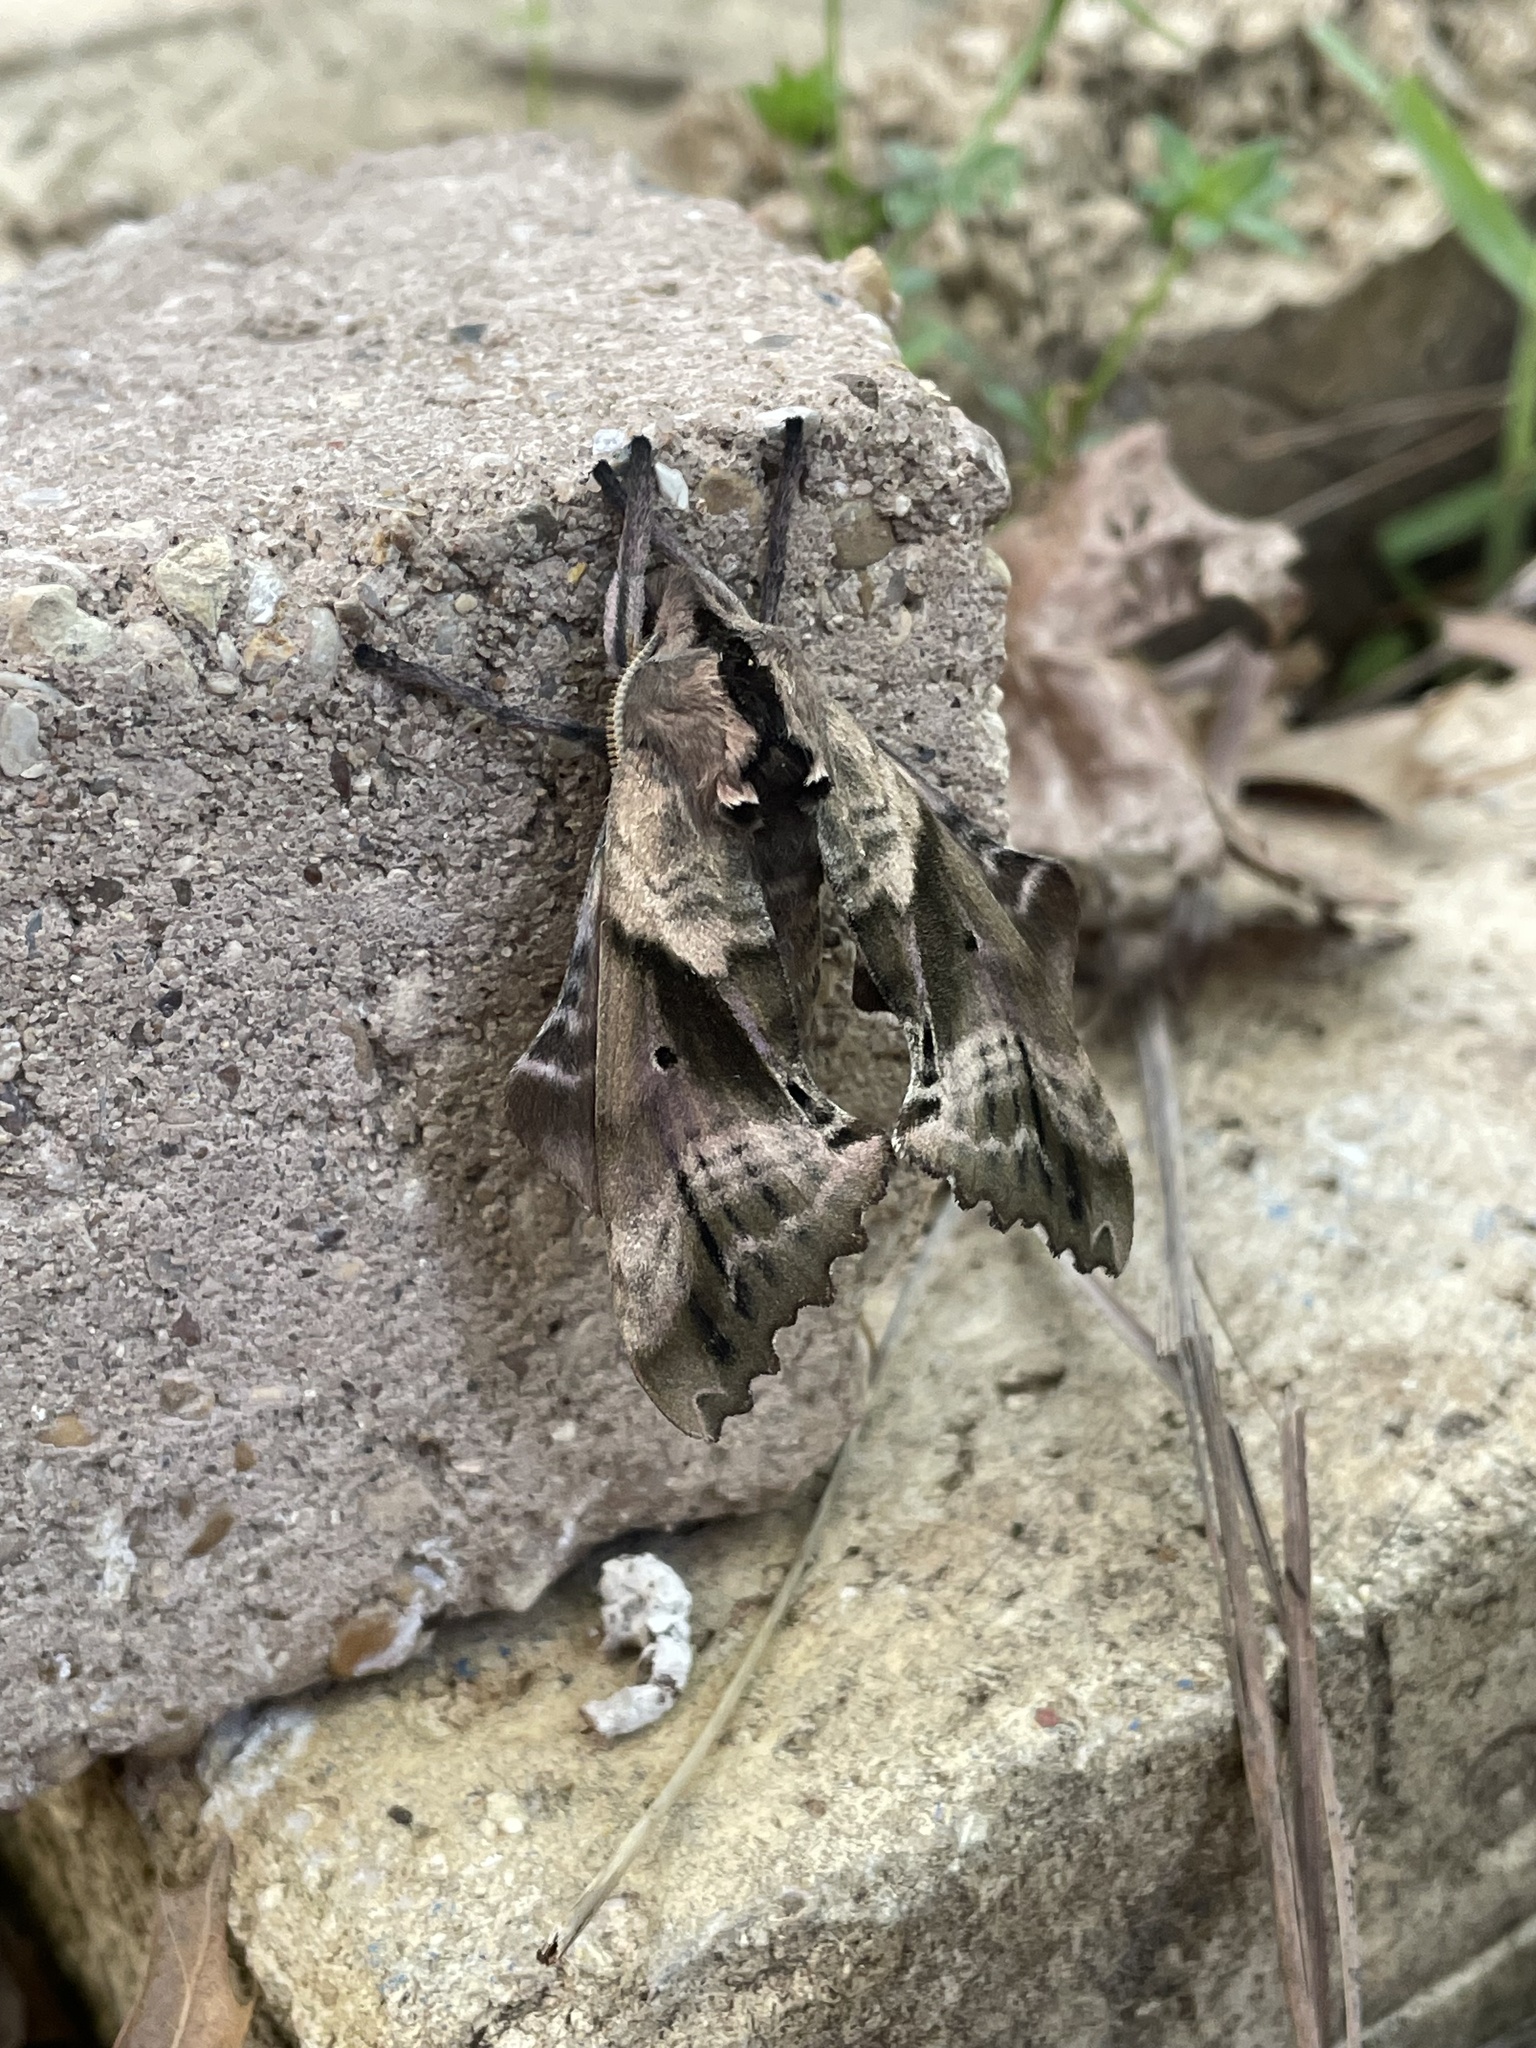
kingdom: Animalia
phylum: Arthropoda
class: Insecta
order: Lepidoptera
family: Sphingidae
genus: Paonias
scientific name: Paonias excaecata
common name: Blind-eyed sphinx
